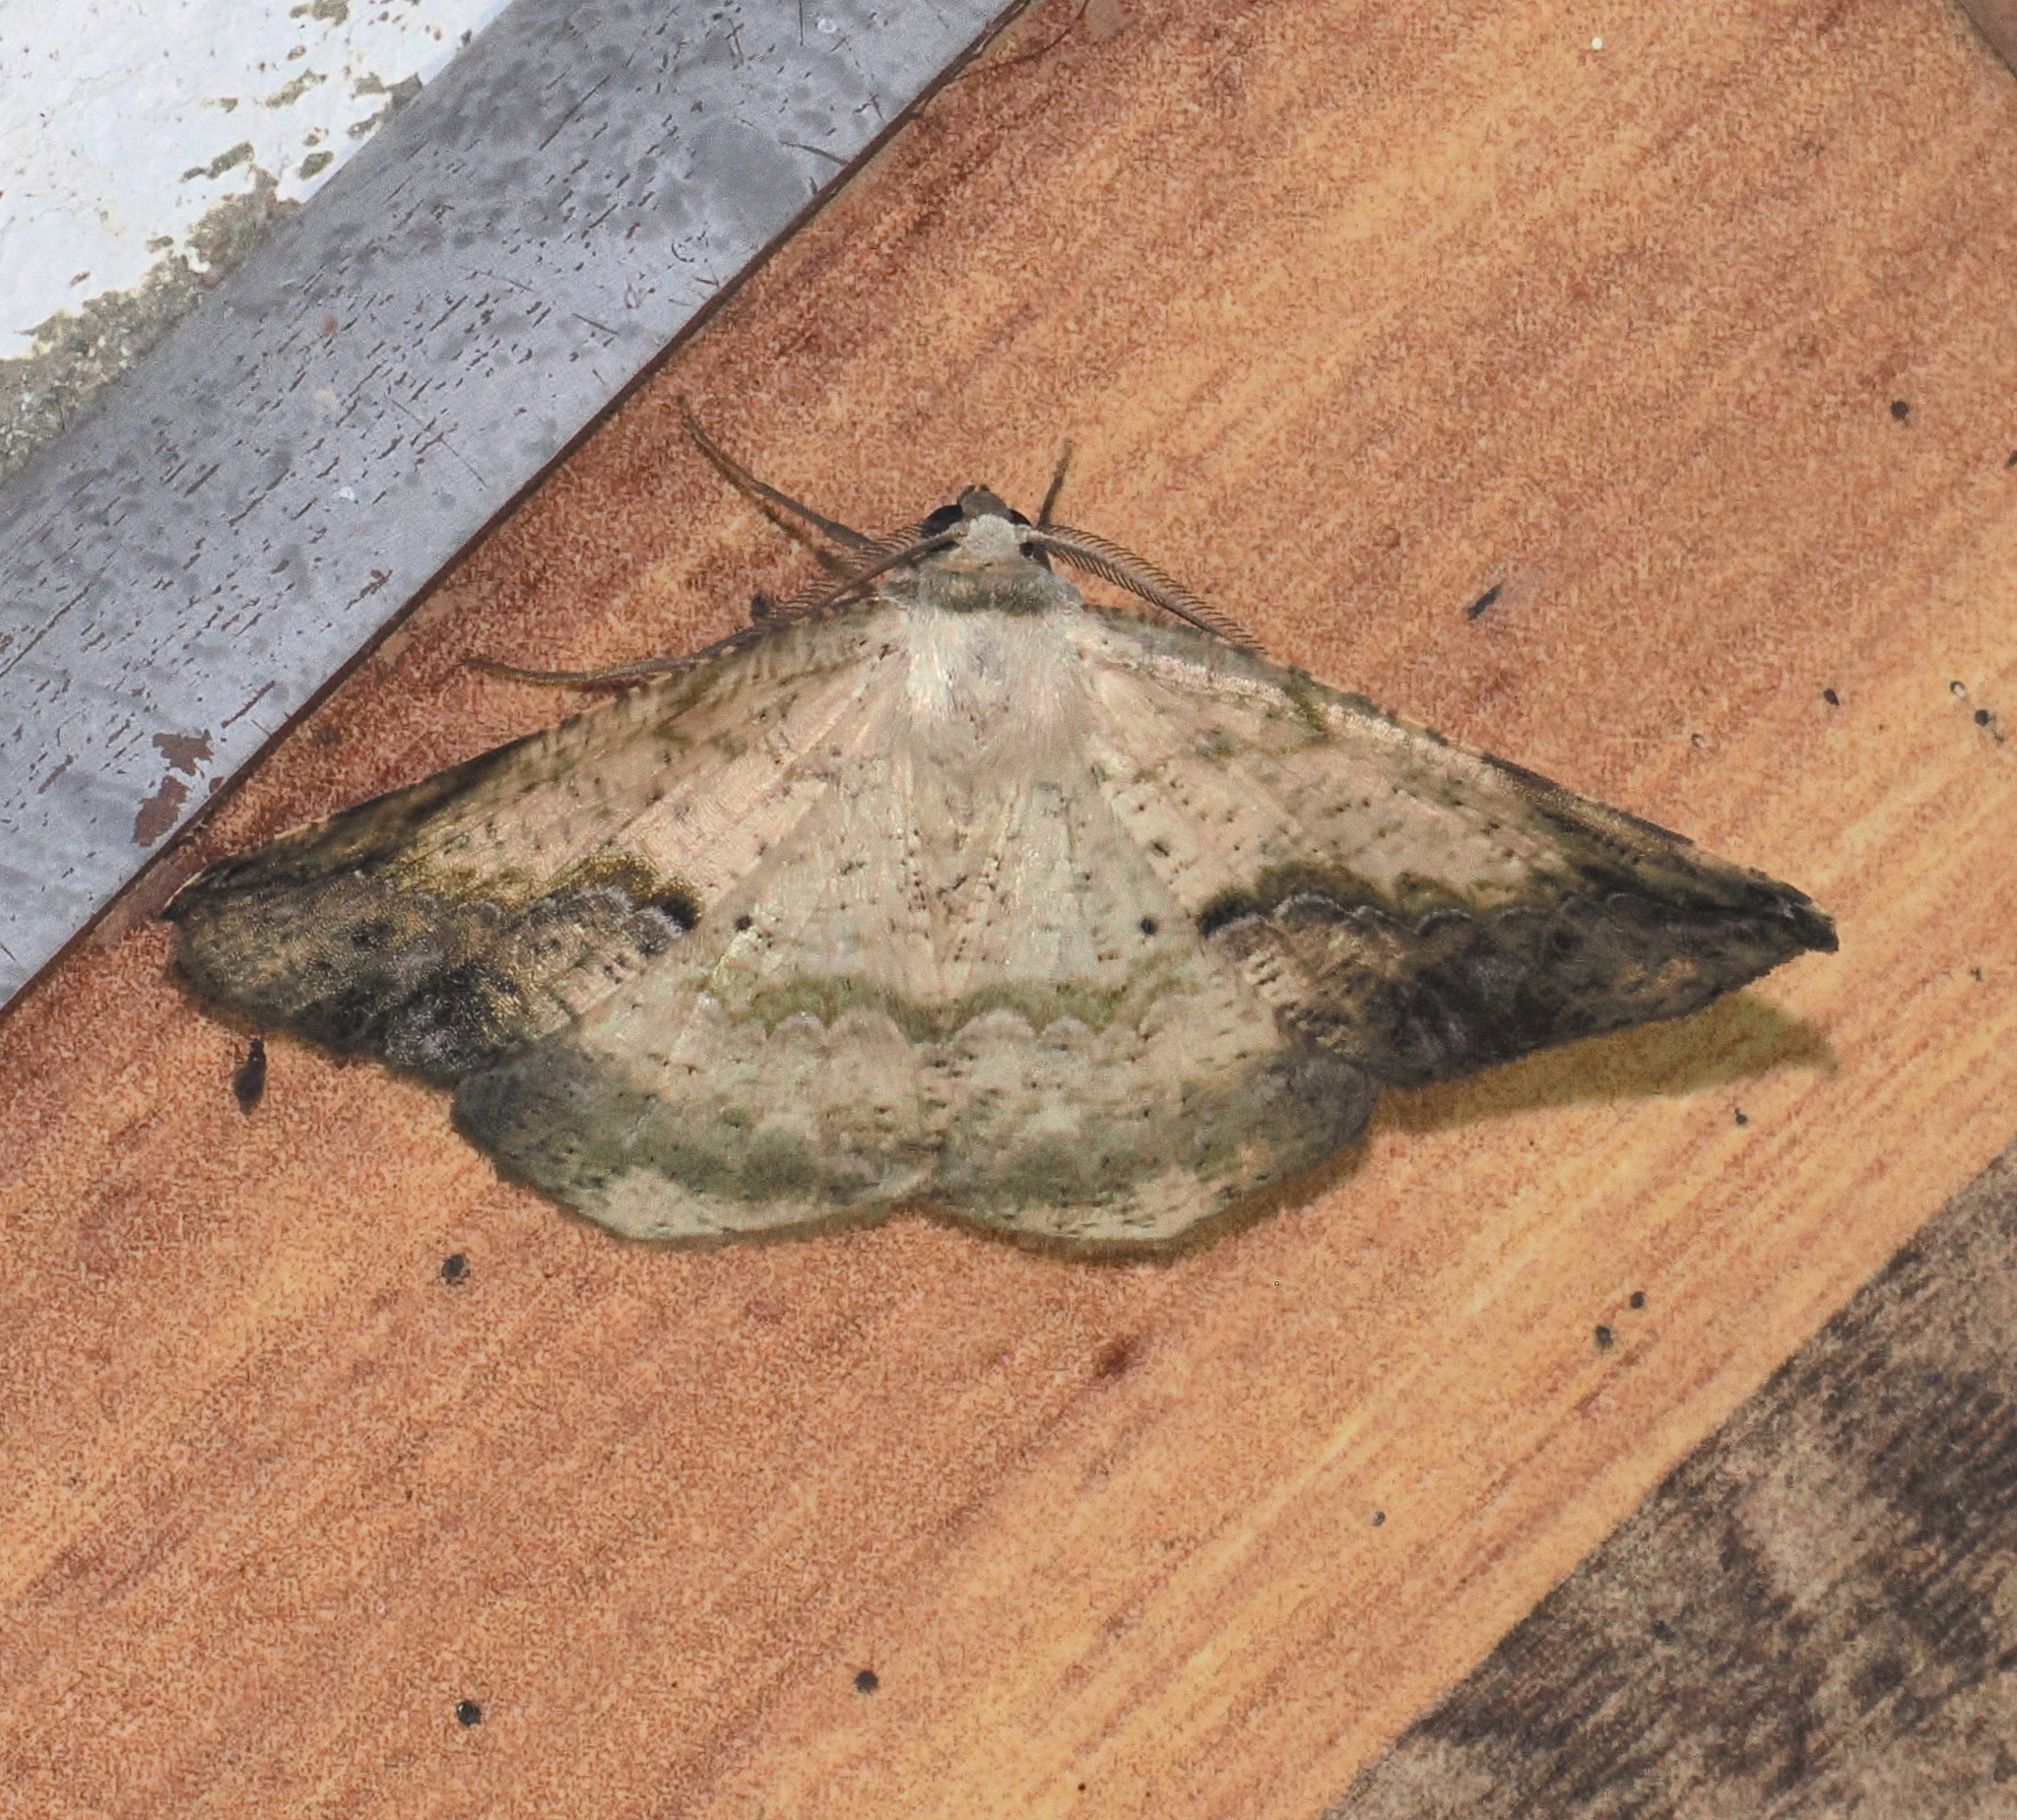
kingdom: Animalia
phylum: Arthropoda
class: Insecta
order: Lepidoptera
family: Geometridae
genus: Eusarca
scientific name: Eusarca nemora
